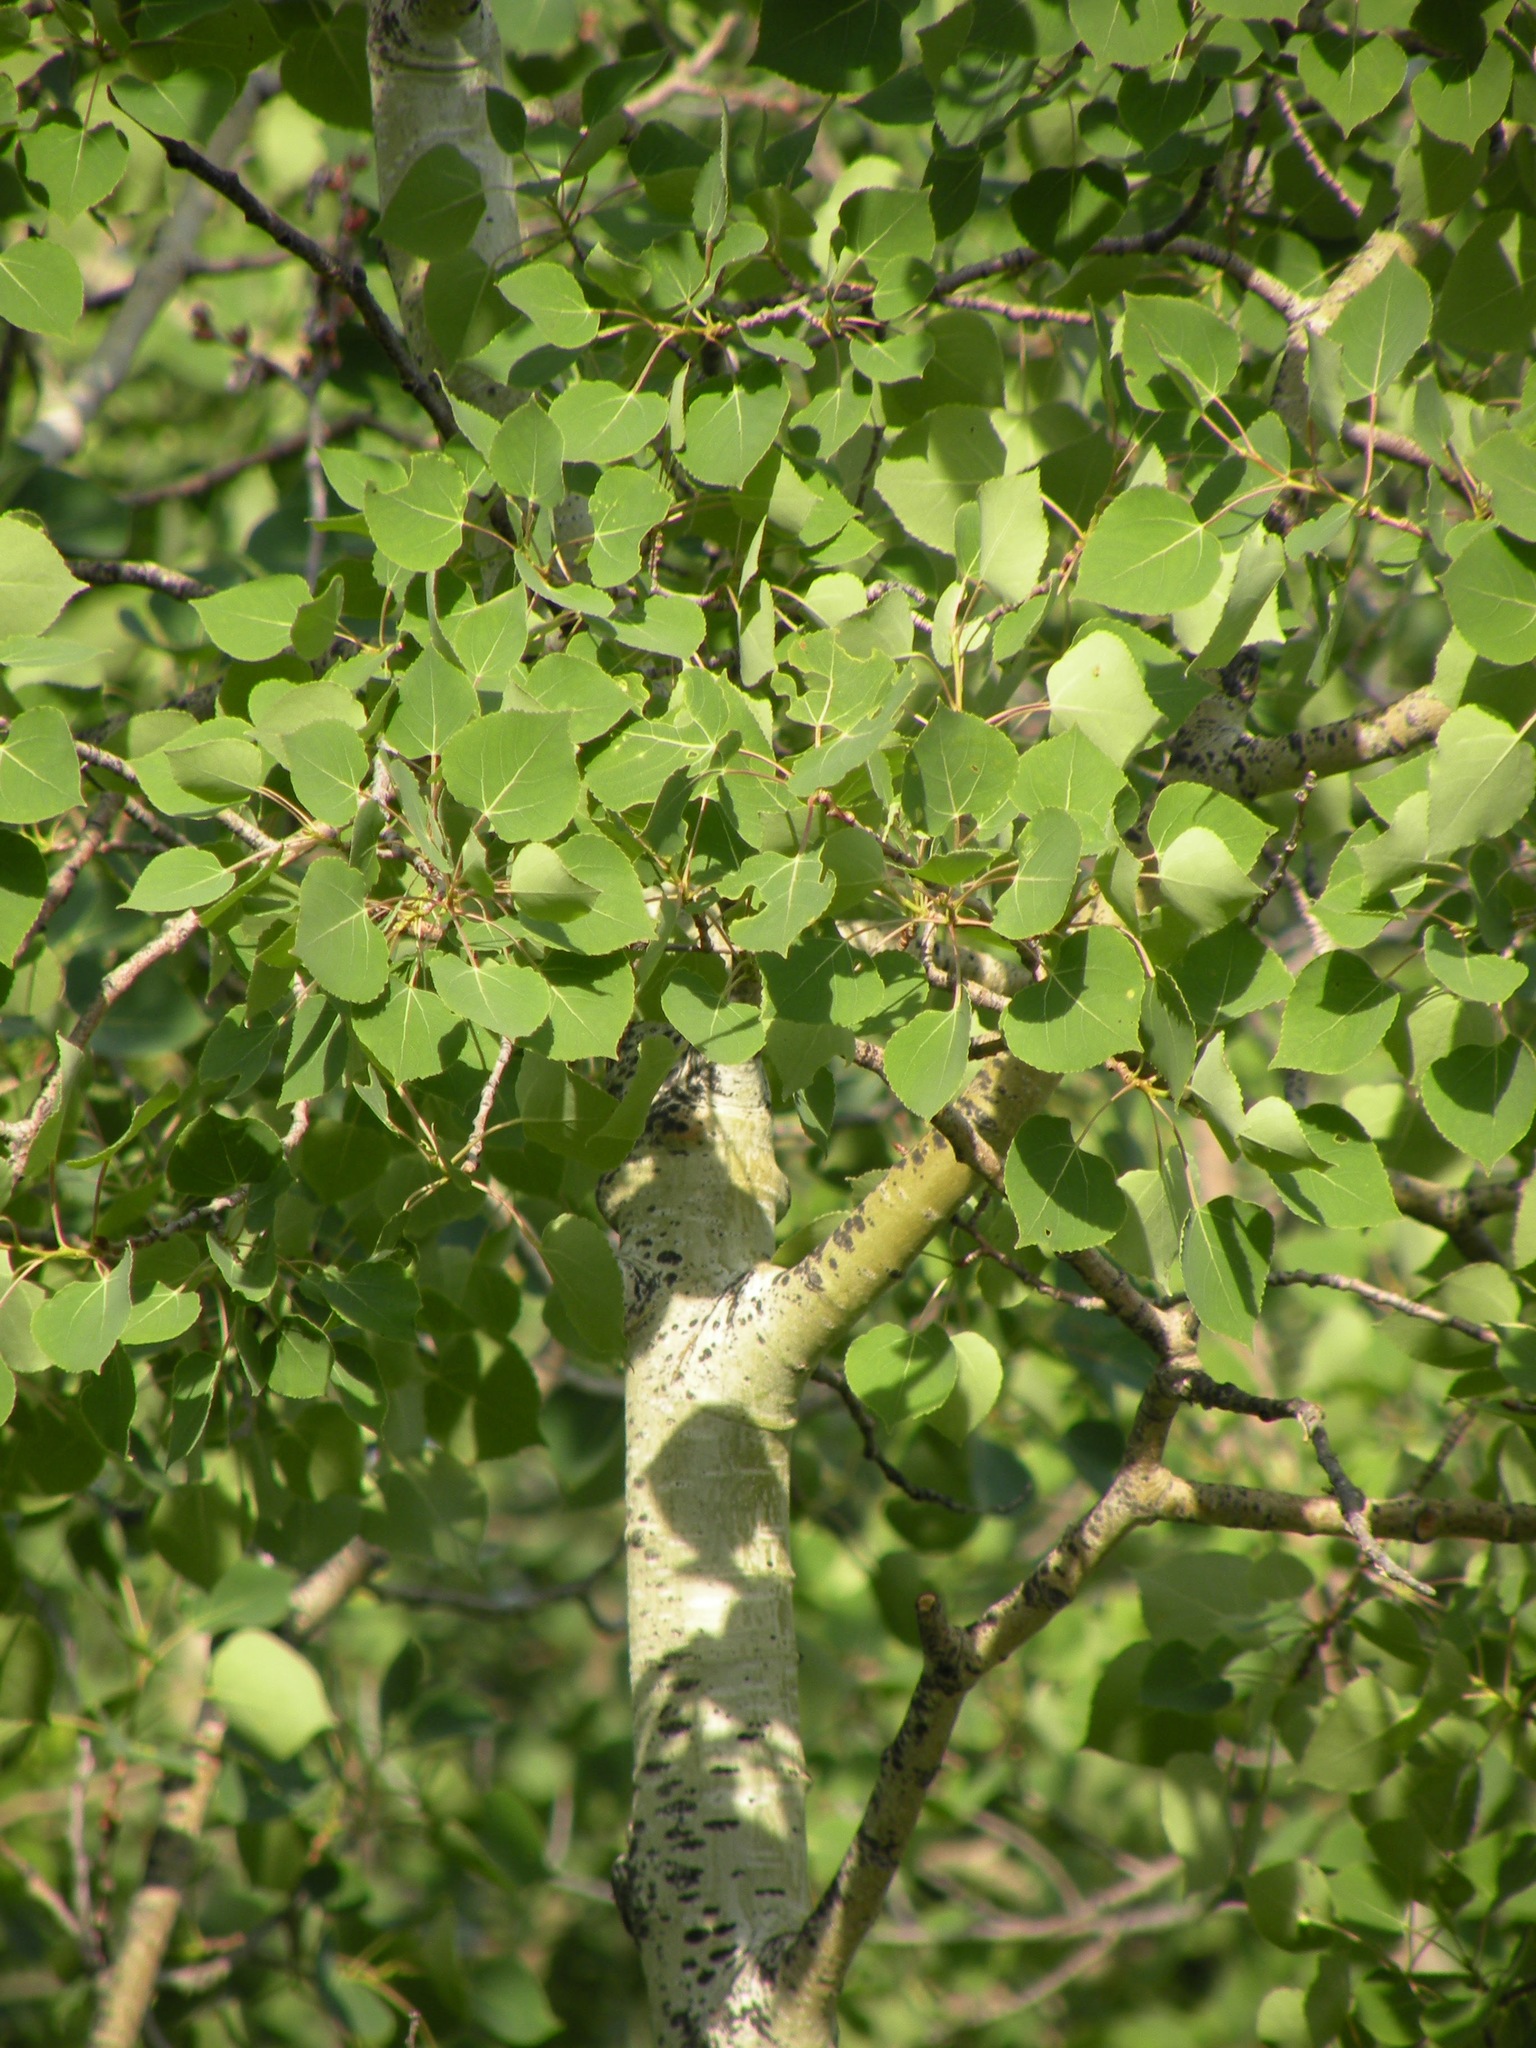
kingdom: Plantae
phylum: Tracheophyta
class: Magnoliopsida
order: Malpighiales
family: Salicaceae
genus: Populus
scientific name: Populus tremuloides
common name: Quaking aspen
